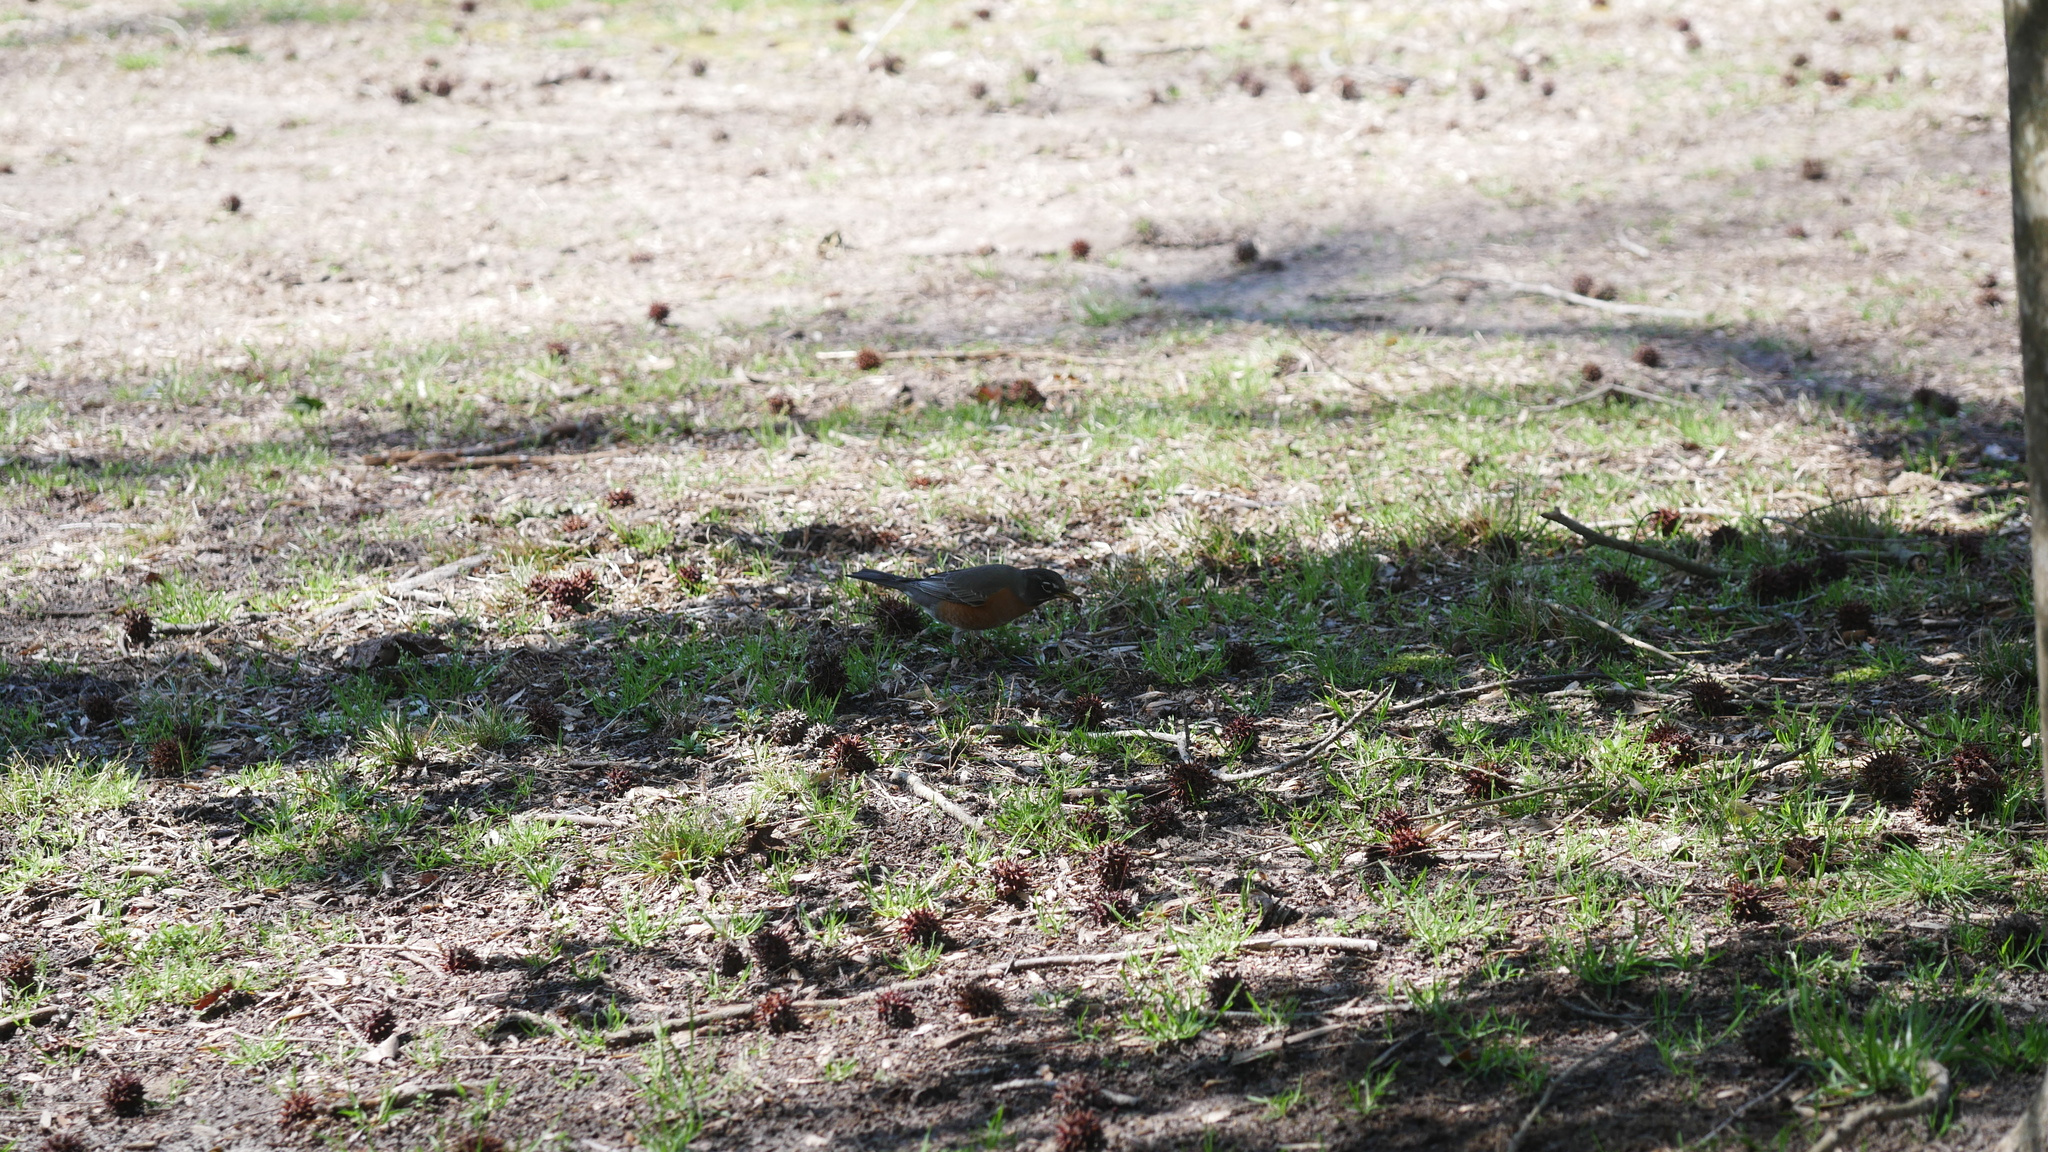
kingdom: Animalia
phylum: Chordata
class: Aves
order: Passeriformes
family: Turdidae
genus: Turdus
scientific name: Turdus migratorius
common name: American robin
